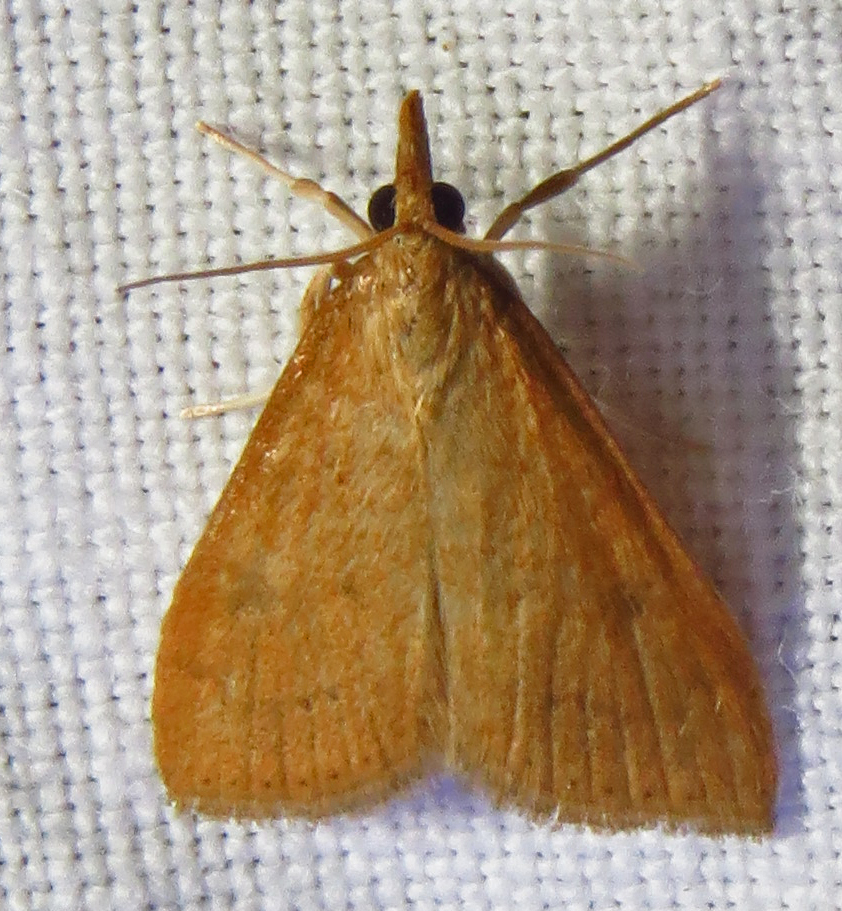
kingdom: Animalia
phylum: Arthropoda
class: Insecta
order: Lepidoptera
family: Crambidae
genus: Udea
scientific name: Udea rubigalis
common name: Celery leaftier moth
